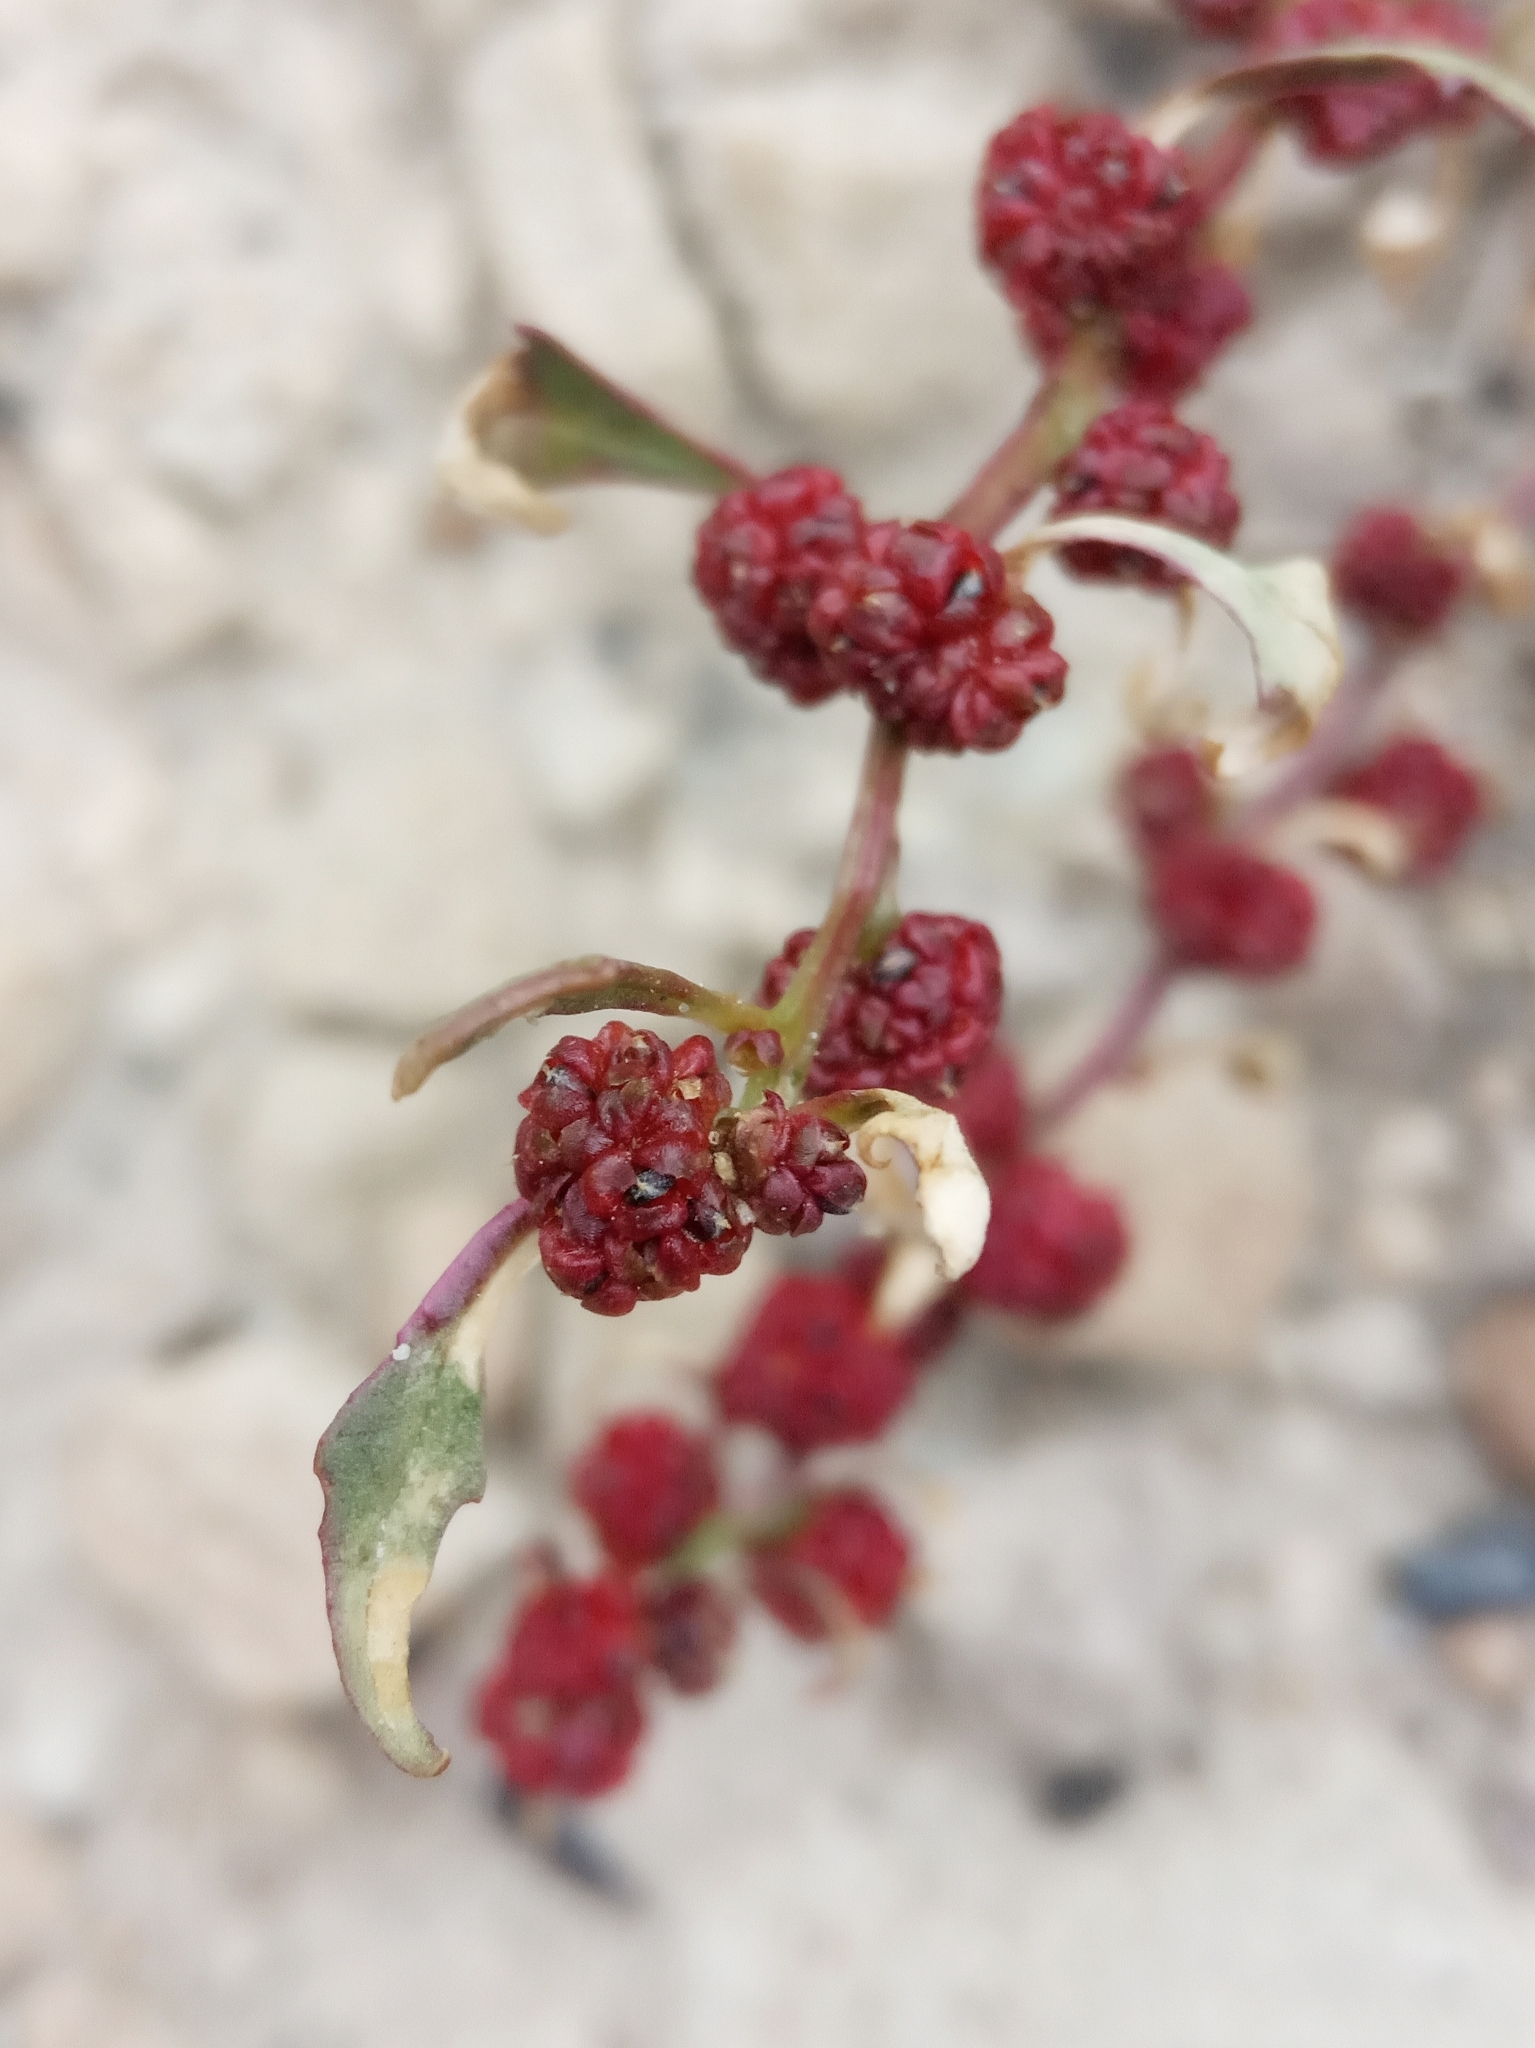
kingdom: Plantae
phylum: Tracheophyta
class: Magnoliopsida
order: Caryophyllales
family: Amaranthaceae
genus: Blitum
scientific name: Blitum virgatum
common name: Strawberry goosefoot
